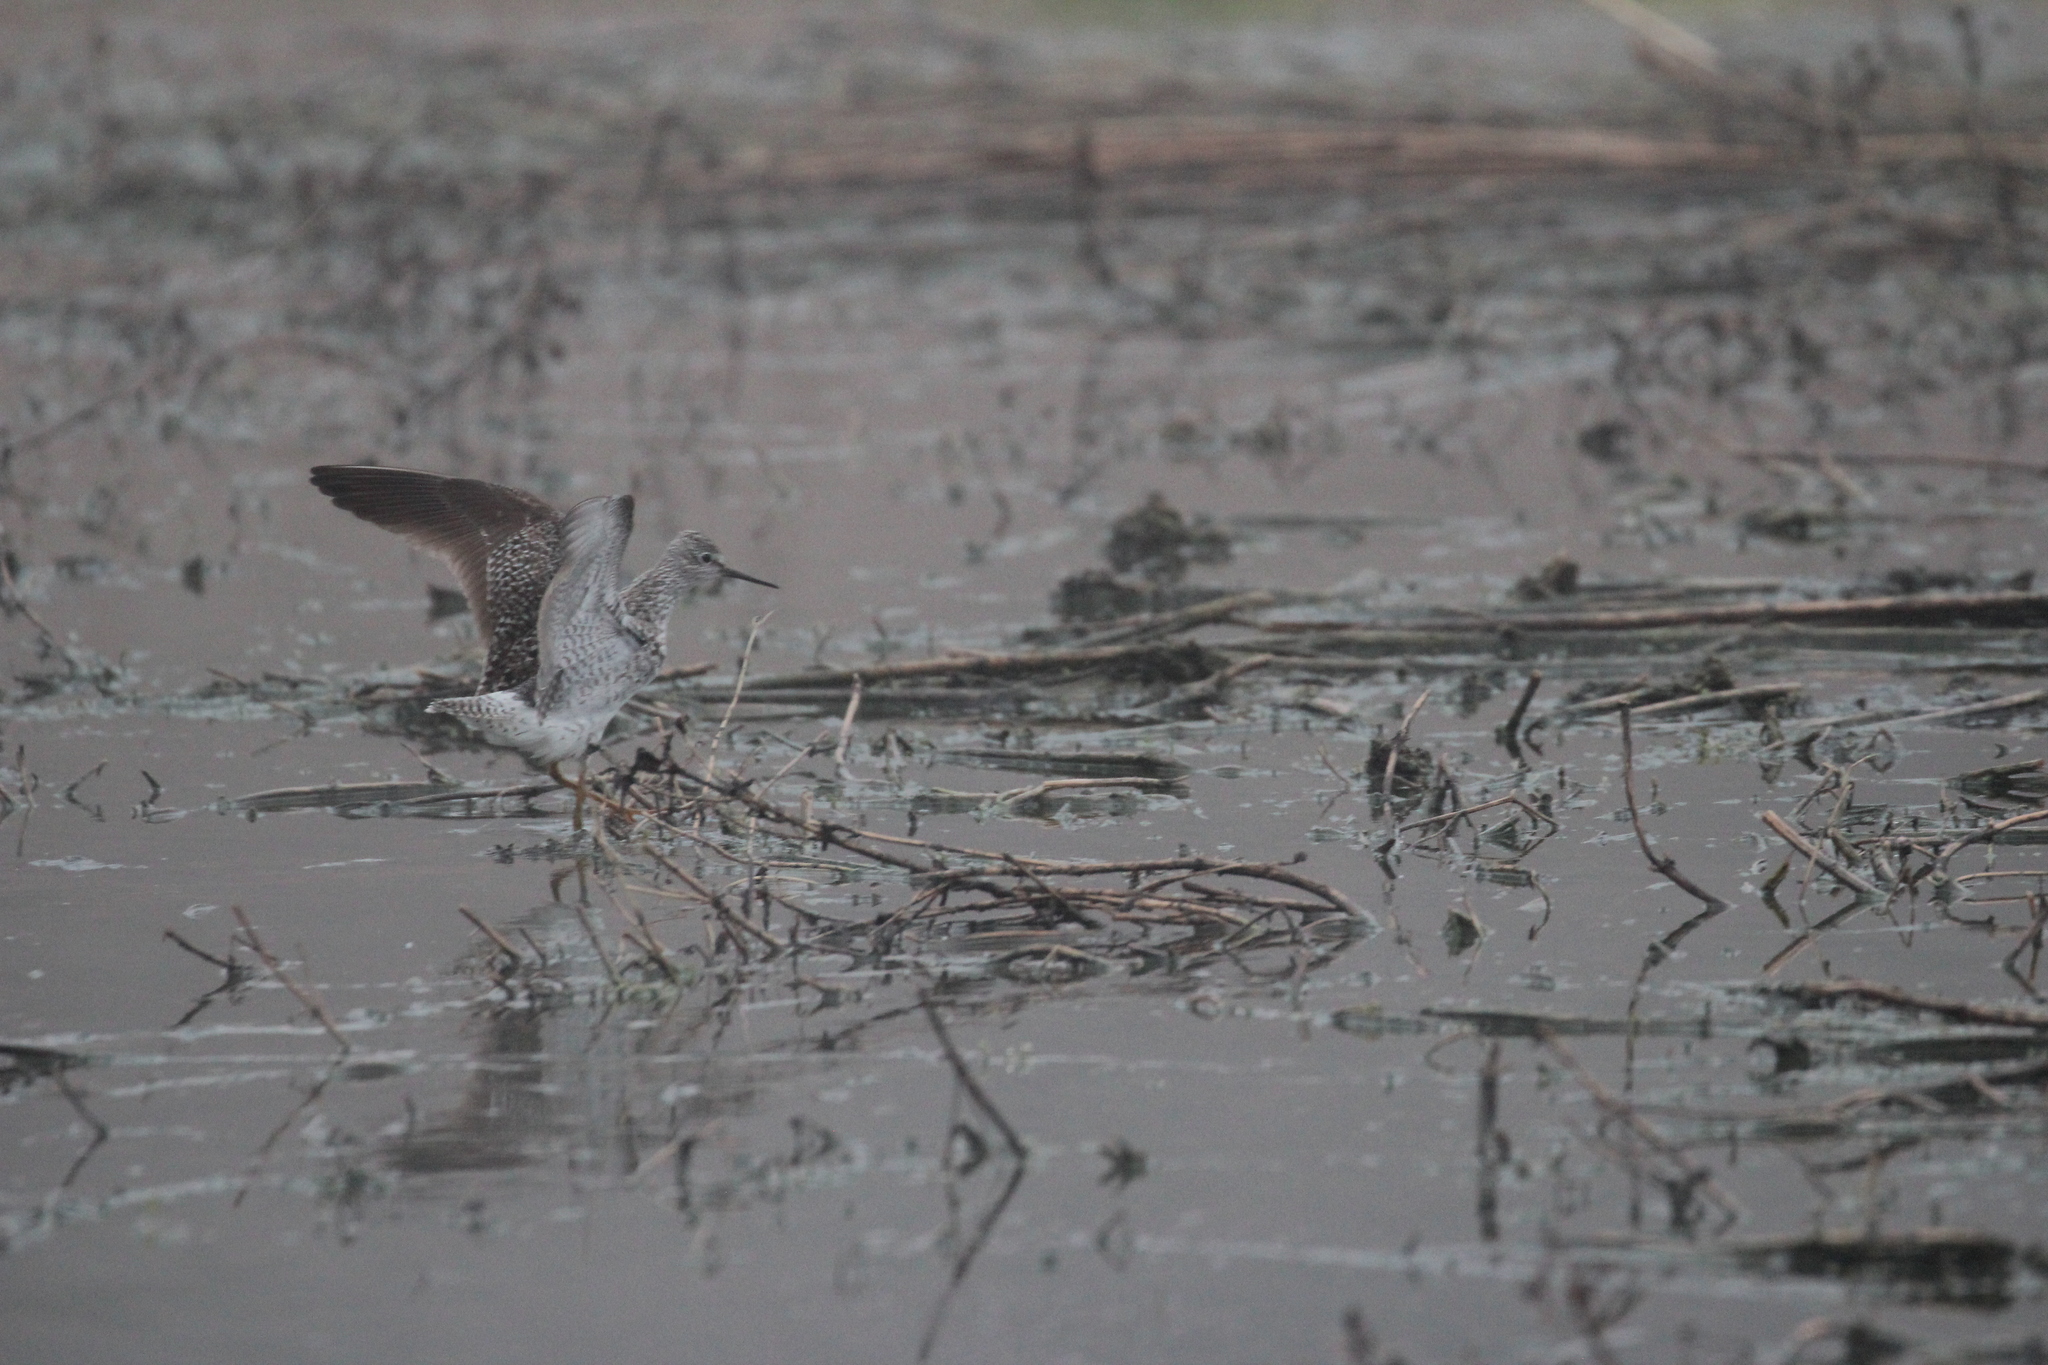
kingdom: Animalia
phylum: Chordata
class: Aves
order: Charadriiformes
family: Scolopacidae
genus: Tringa
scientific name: Tringa flavipes
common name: Lesser yellowlegs
